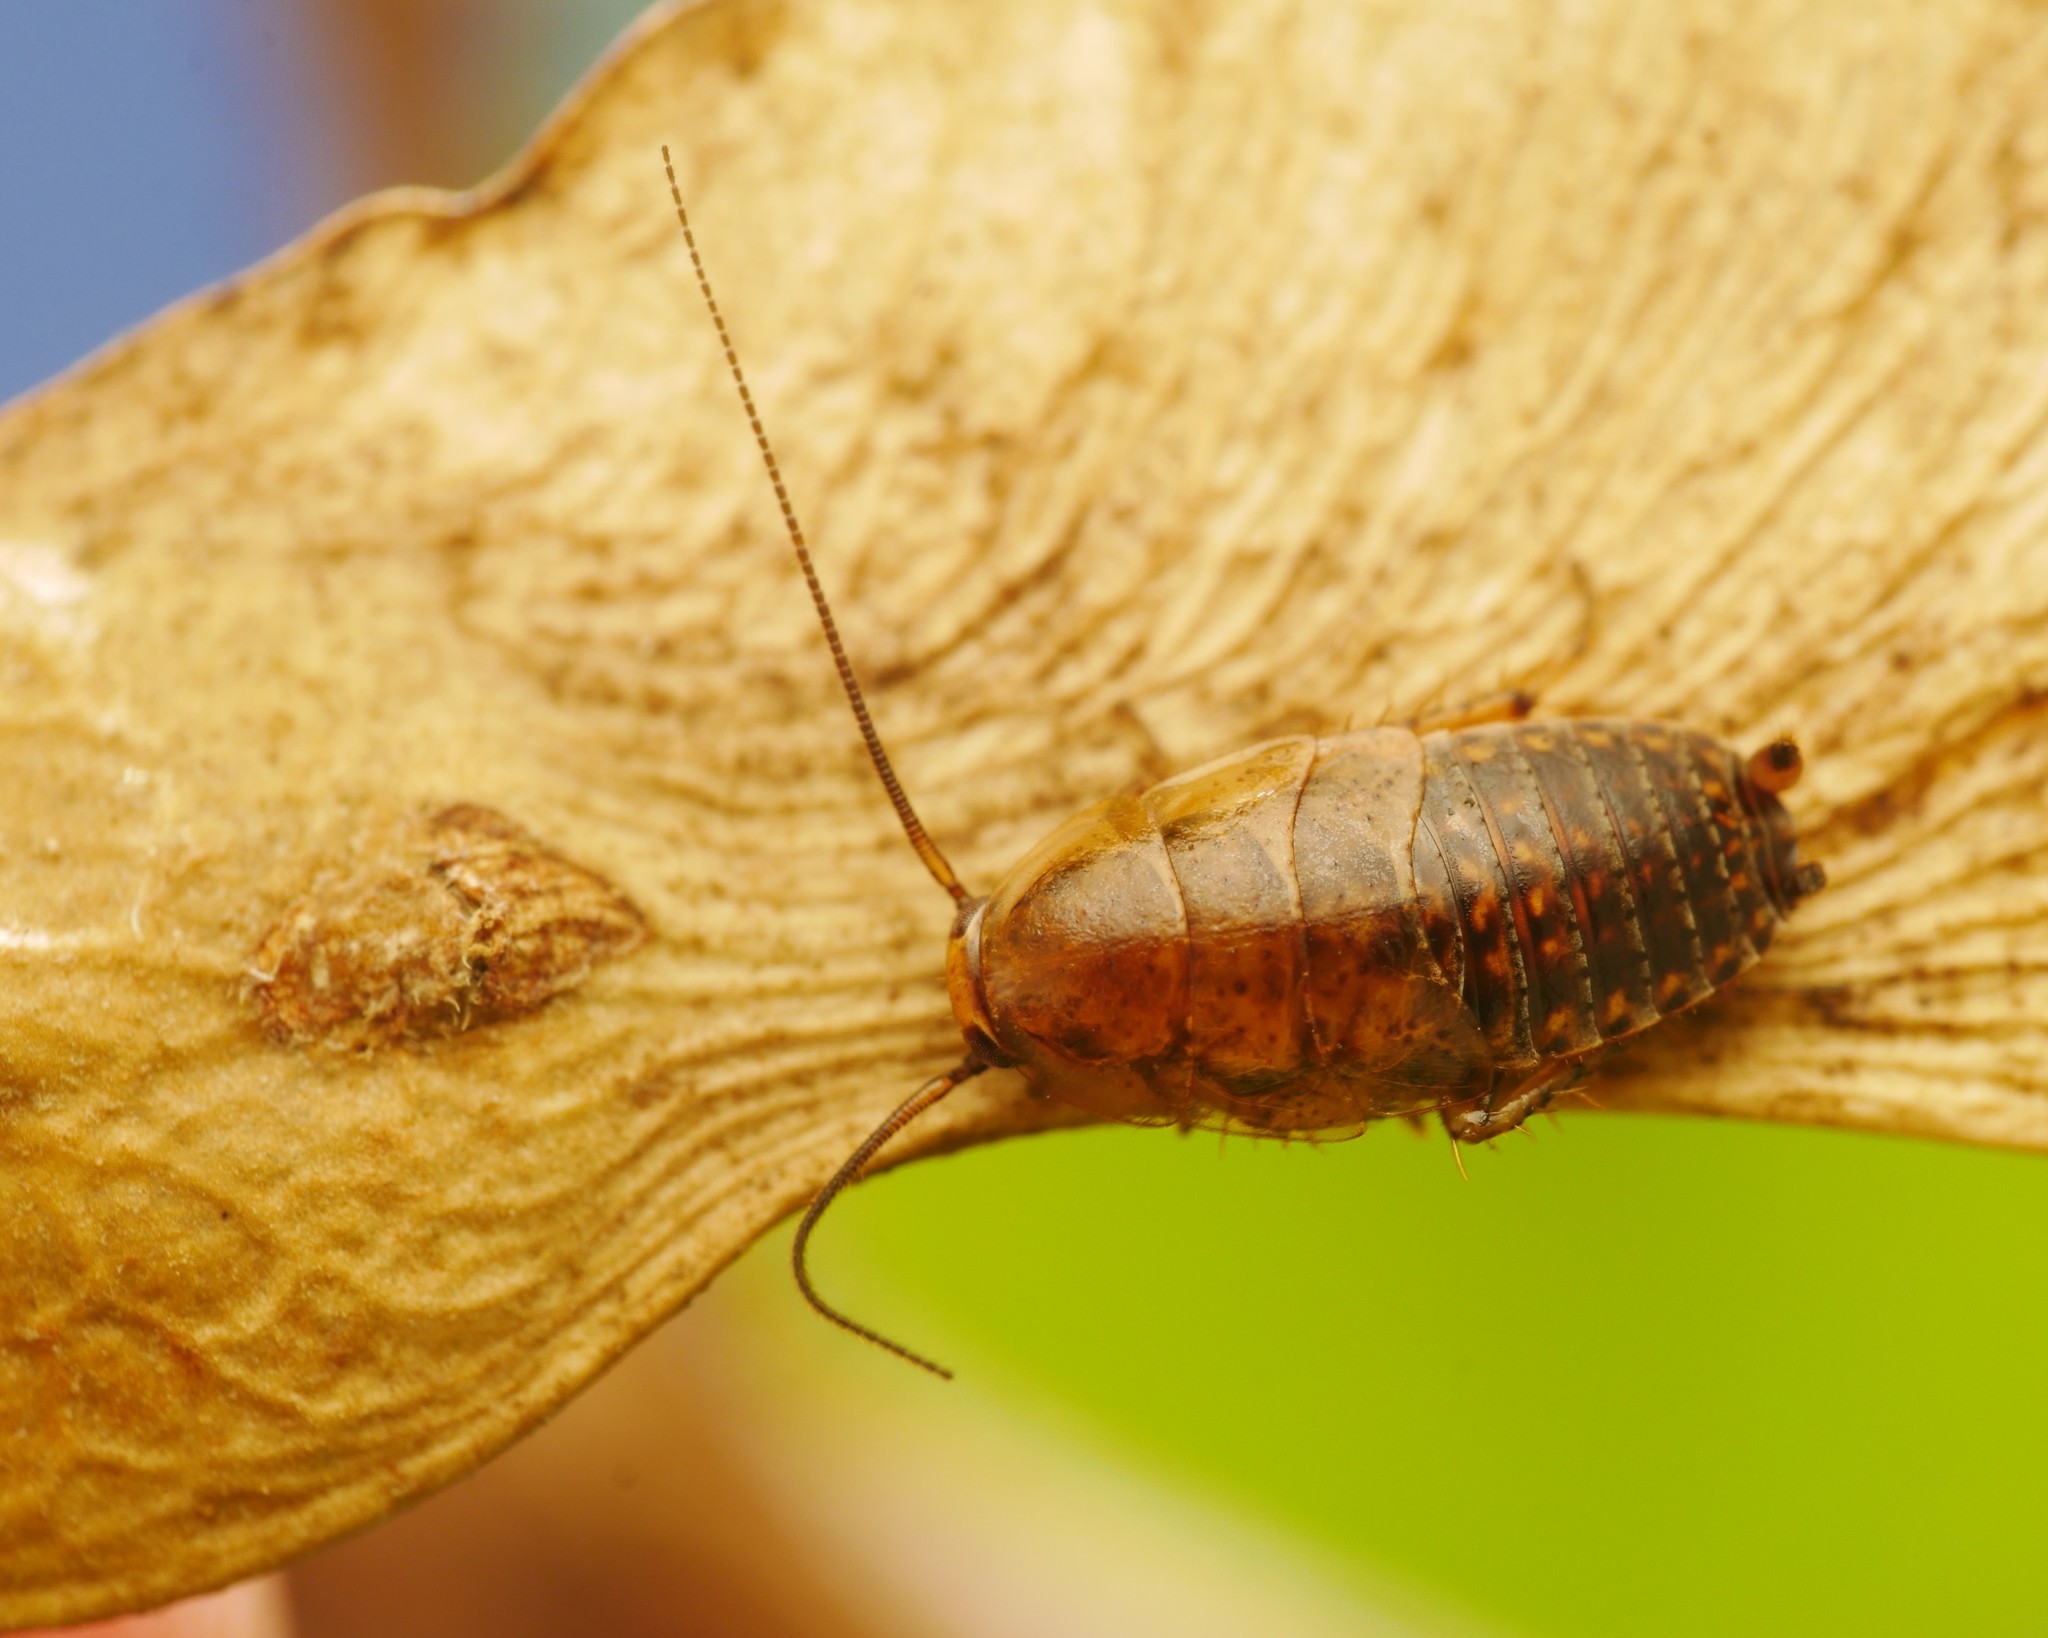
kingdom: Animalia
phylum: Arthropoda
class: Insecta
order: Blattodea
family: Ectobiidae
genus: Ectobius
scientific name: Ectobius lapponicus
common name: Dusky cockroach
